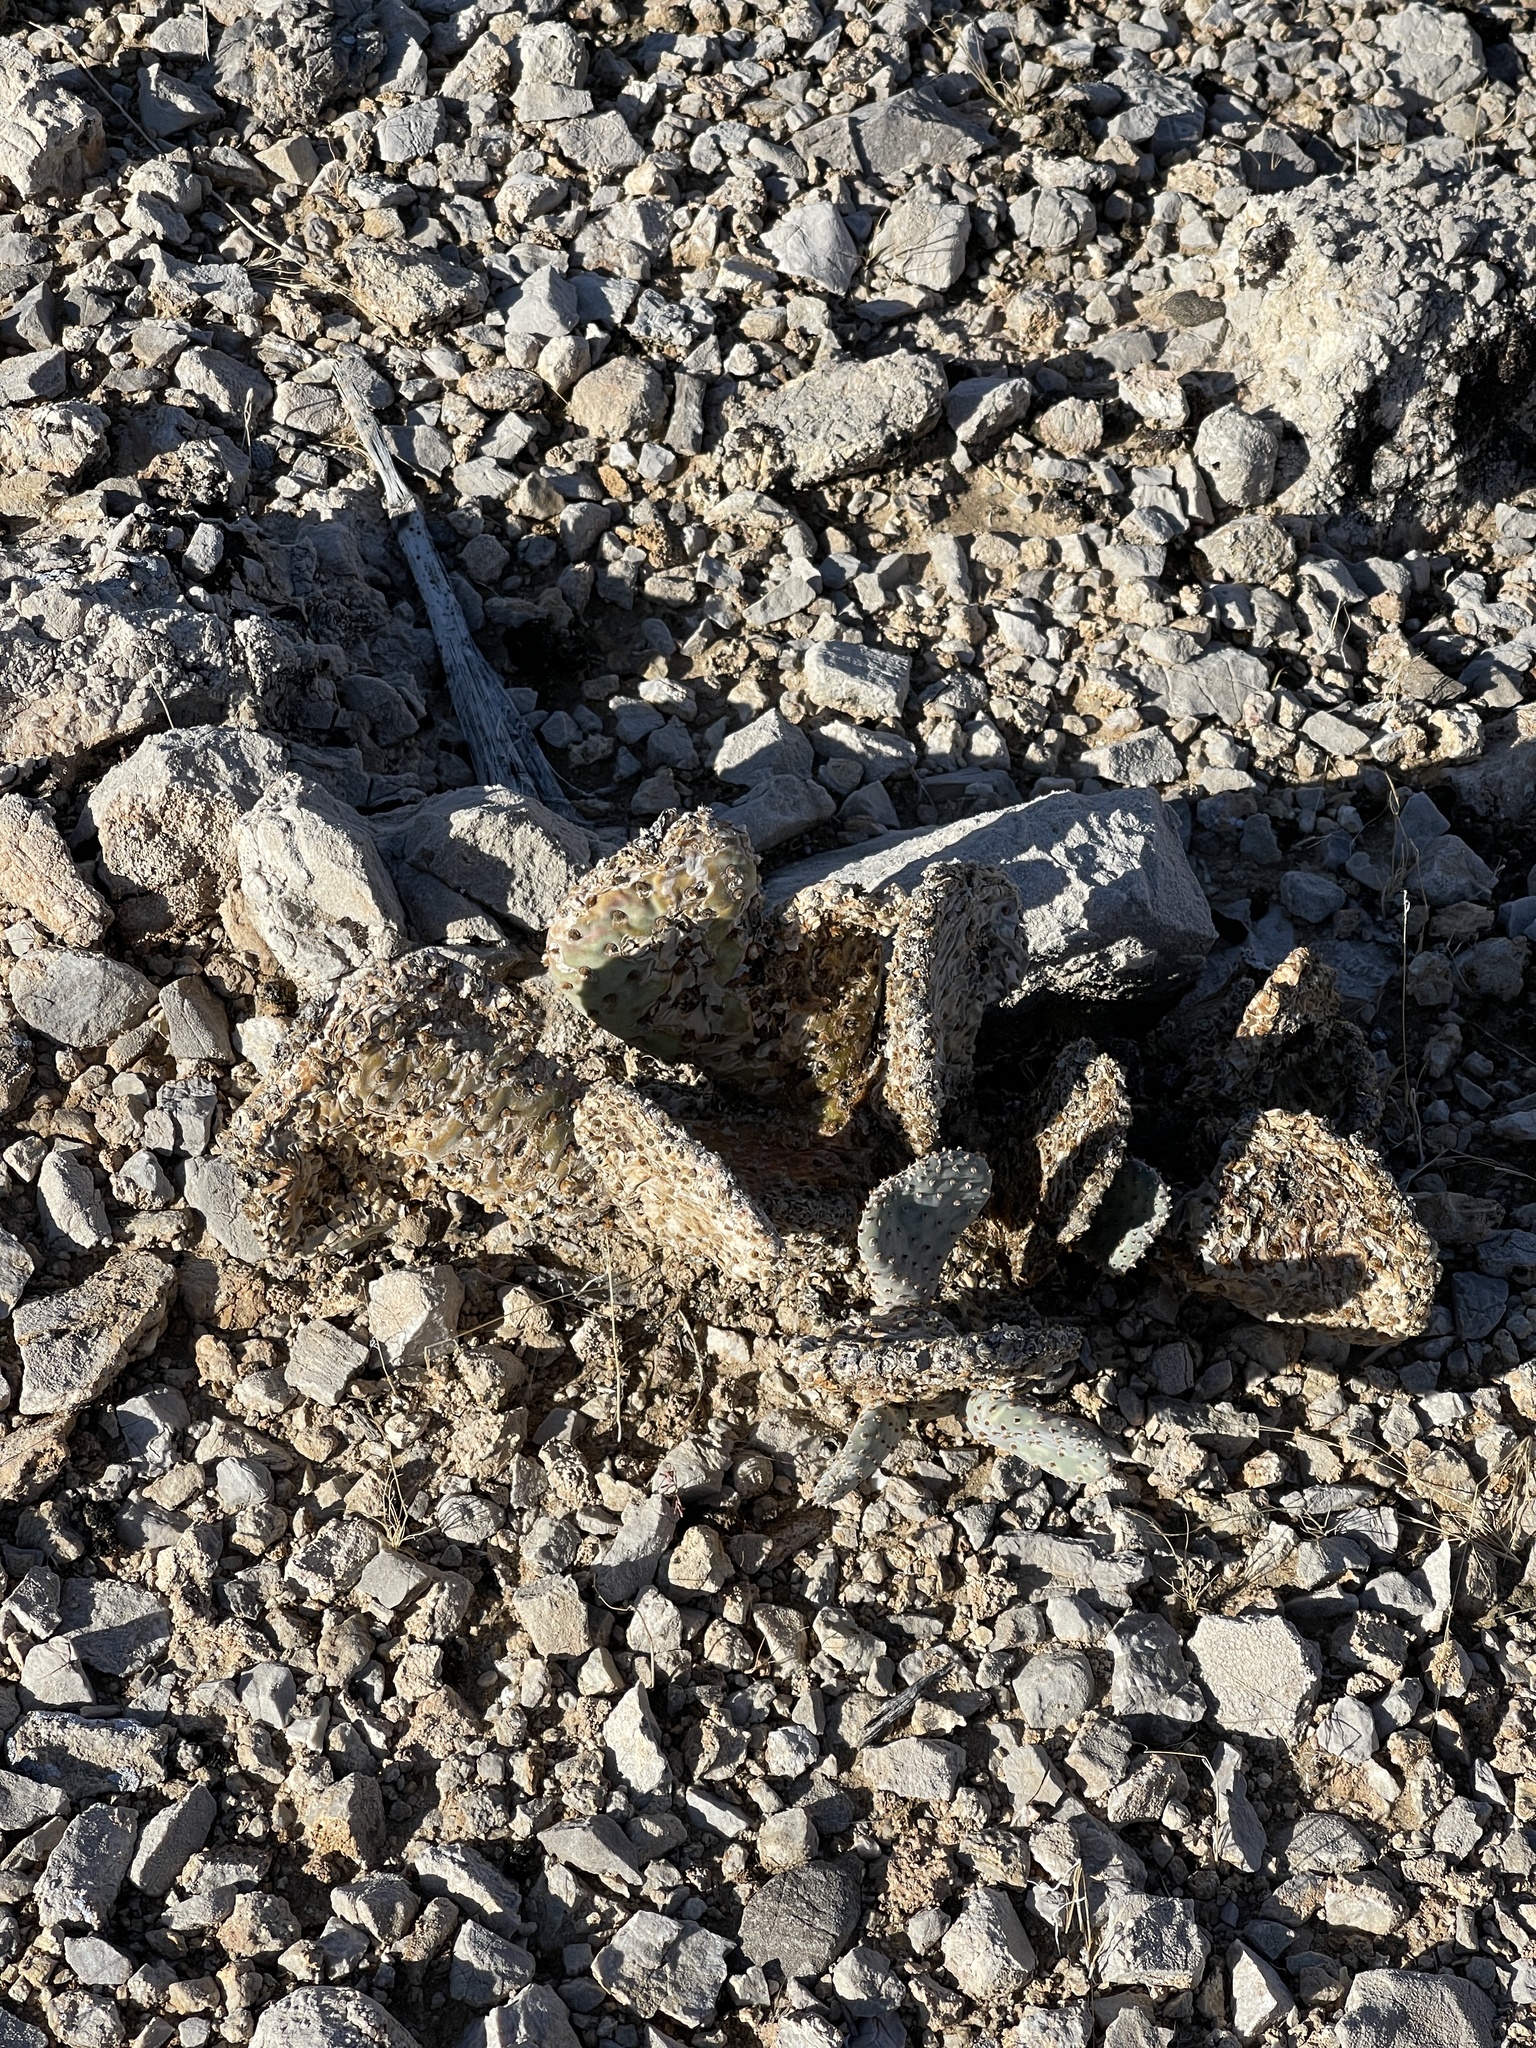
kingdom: Plantae
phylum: Tracheophyta
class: Magnoliopsida
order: Caryophyllales
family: Cactaceae
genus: Opuntia
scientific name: Opuntia basilaris
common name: Beavertail prickly-pear
